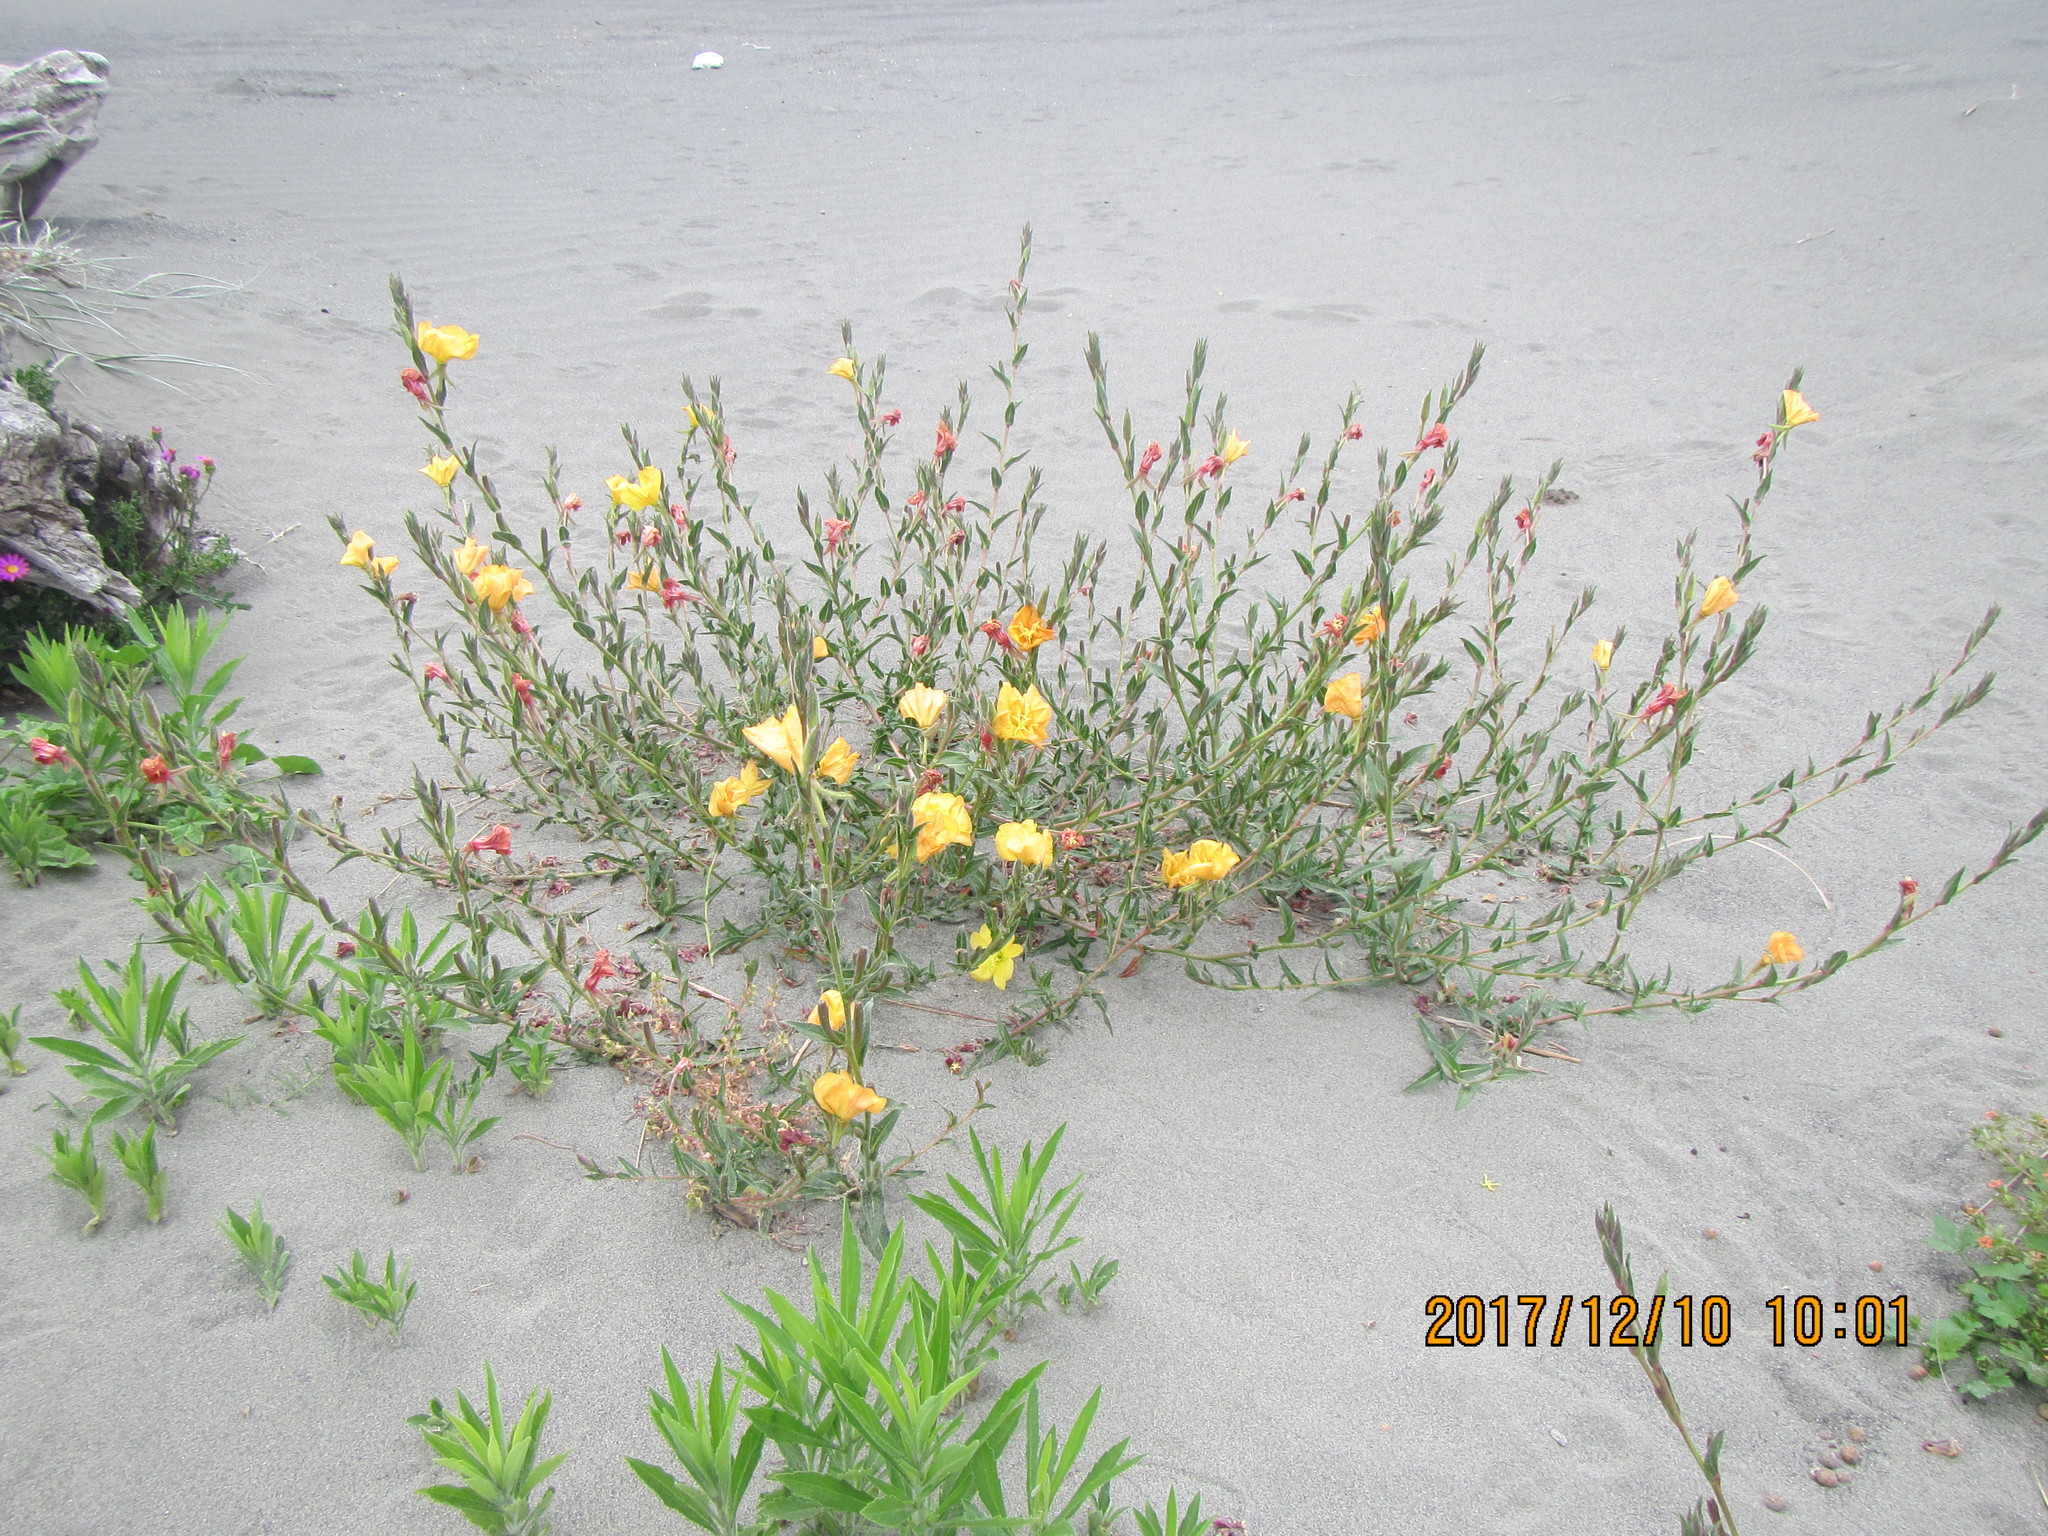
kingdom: Plantae
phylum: Tracheophyta
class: Magnoliopsida
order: Myrtales
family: Onagraceae
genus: Oenothera
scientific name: Oenothera stricta
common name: Fragrant evening-primrose
